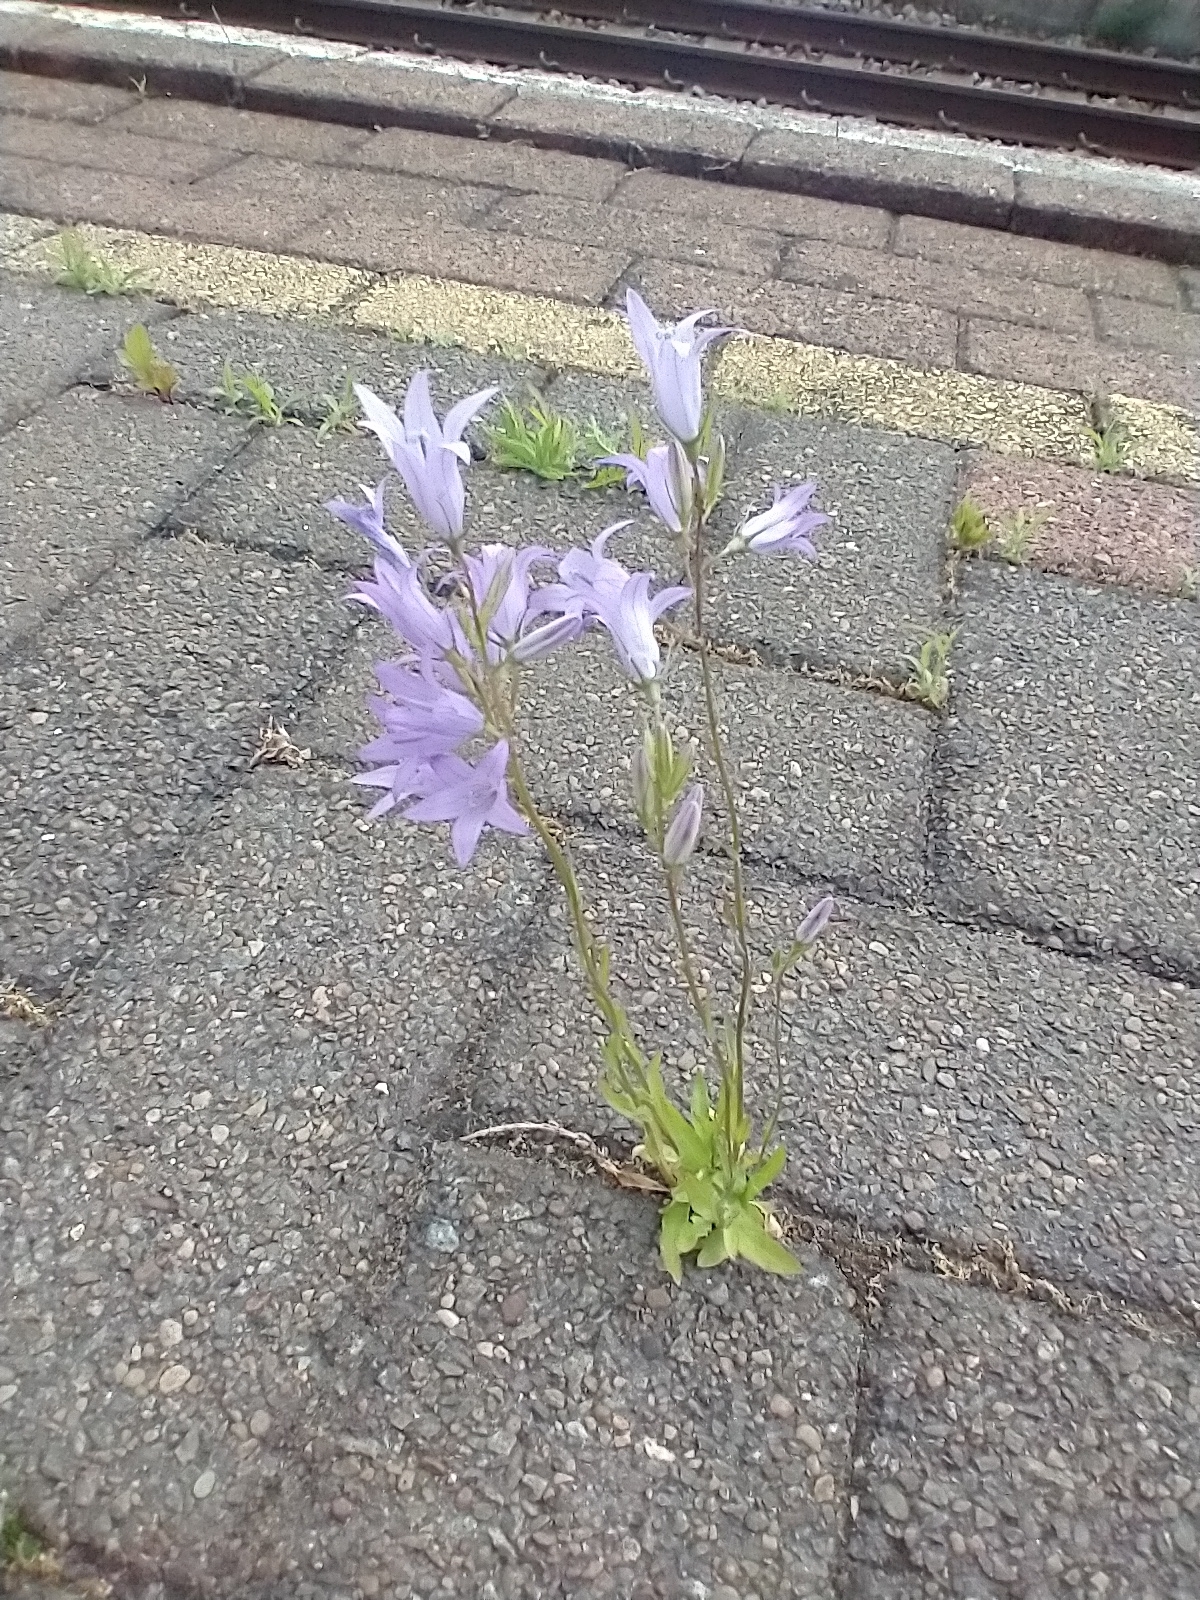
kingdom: Plantae
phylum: Tracheophyta
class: Magnoliopsida
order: Asterales
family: Campanulaceae
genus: Campanula
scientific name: Campanula rapunculus
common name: Rampion bellflower
